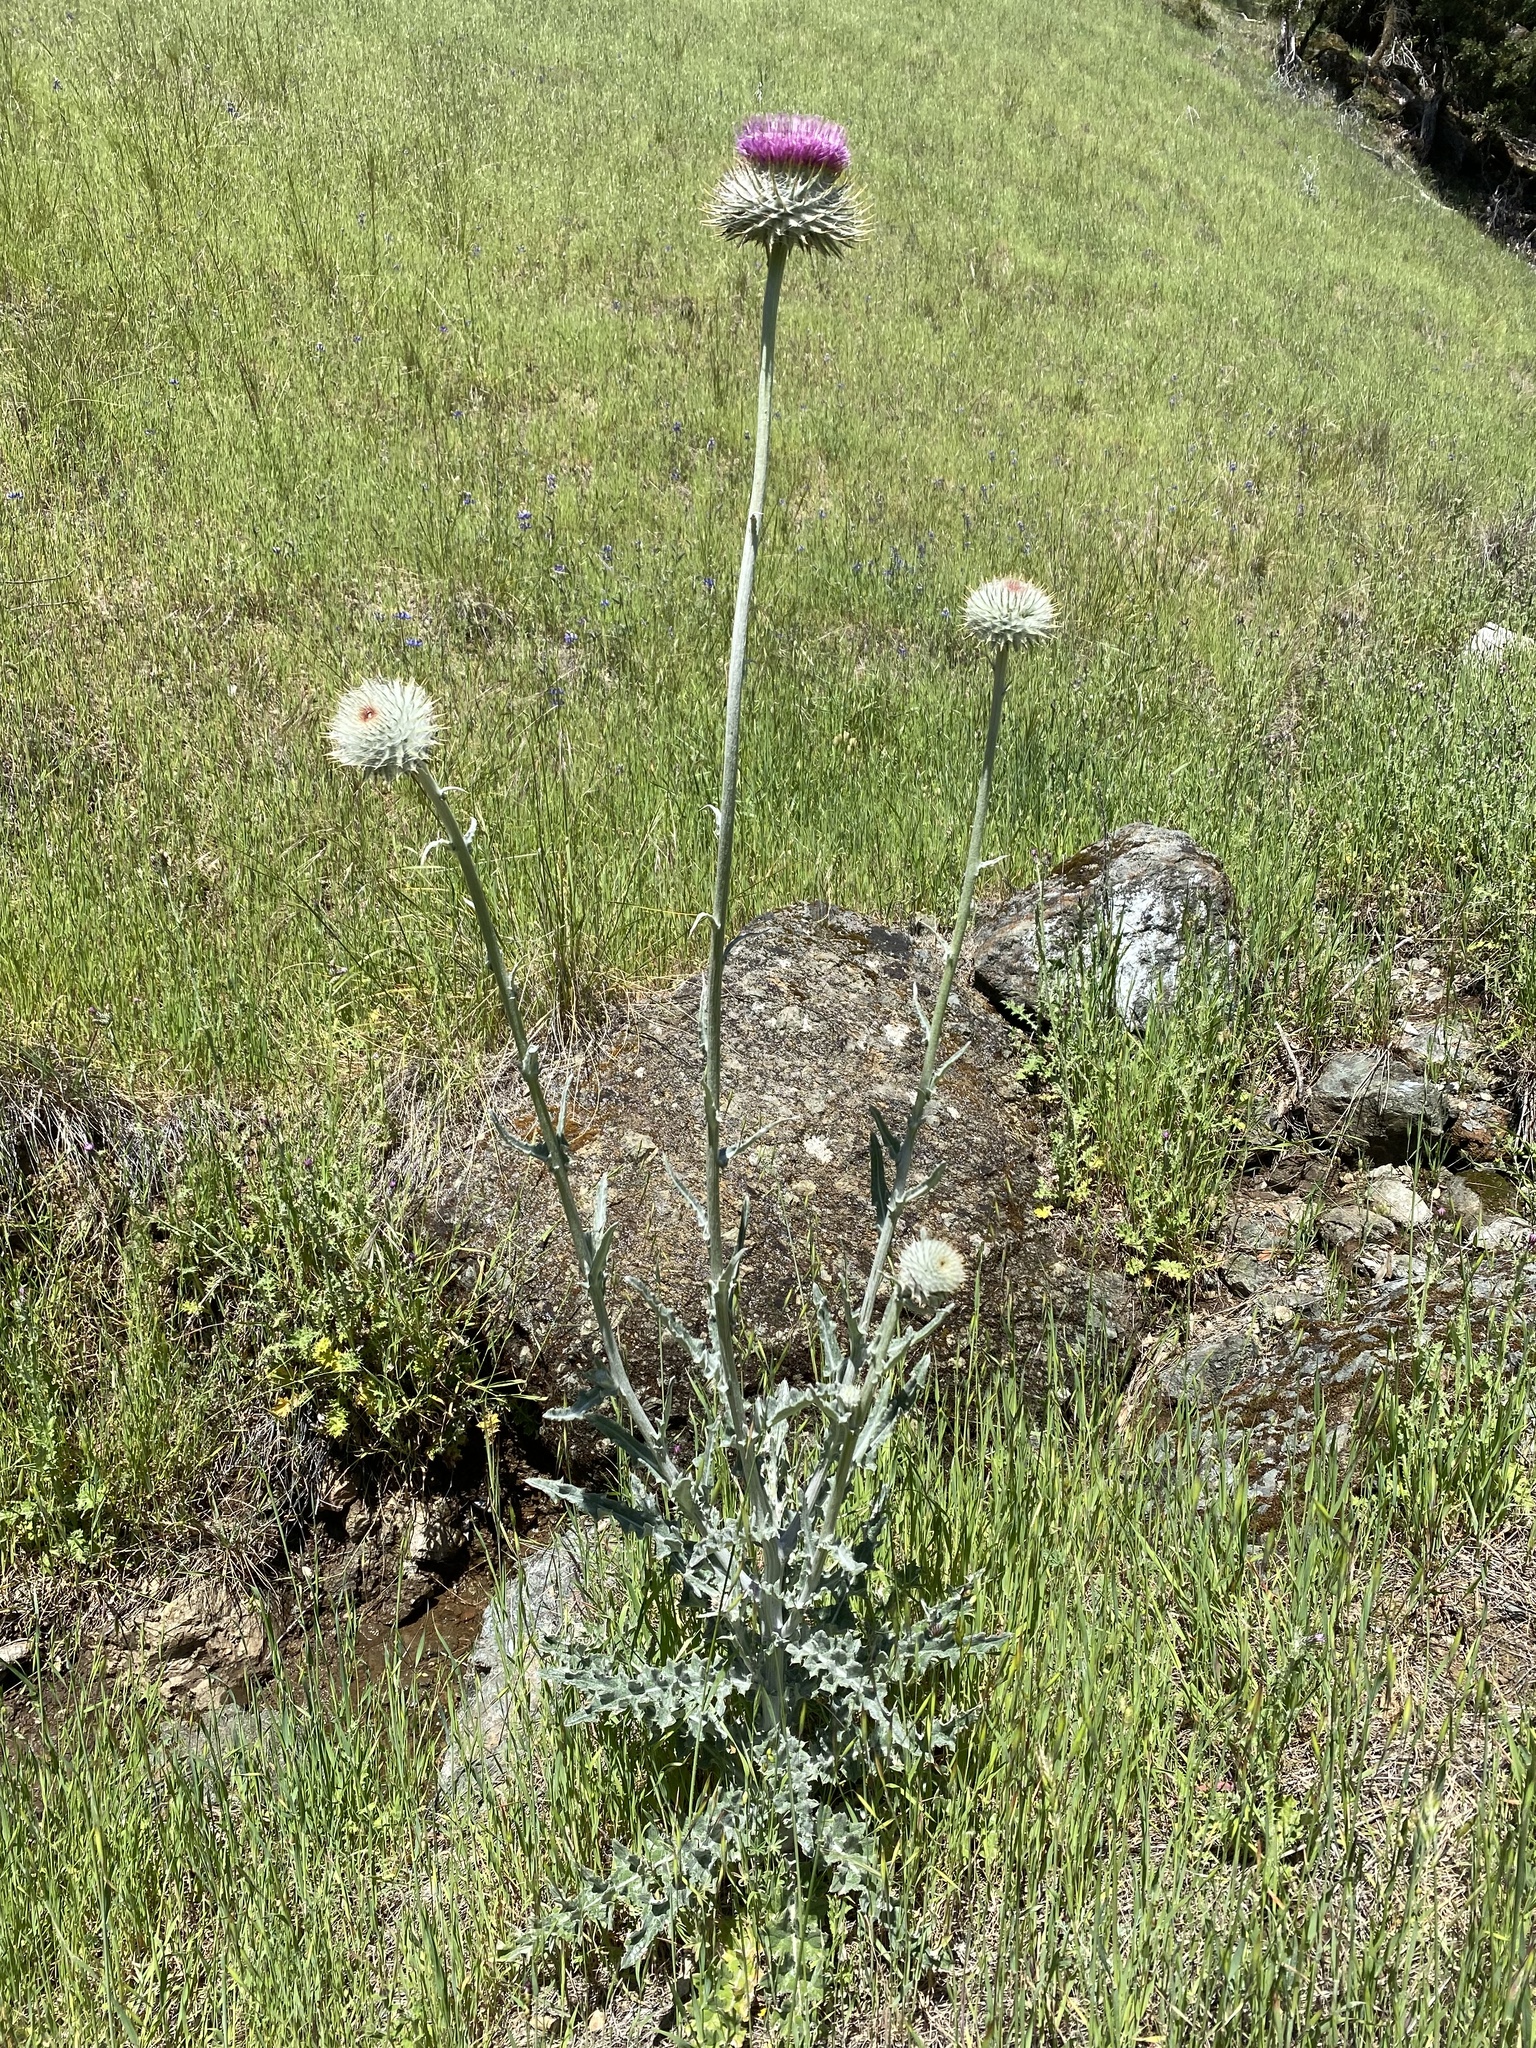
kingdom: Plantae
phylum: Tracheophyta
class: Magnoliopsida
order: Asterales
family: Asteraceae
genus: Cirsium
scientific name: Cirsium occidentale
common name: Western thistle
